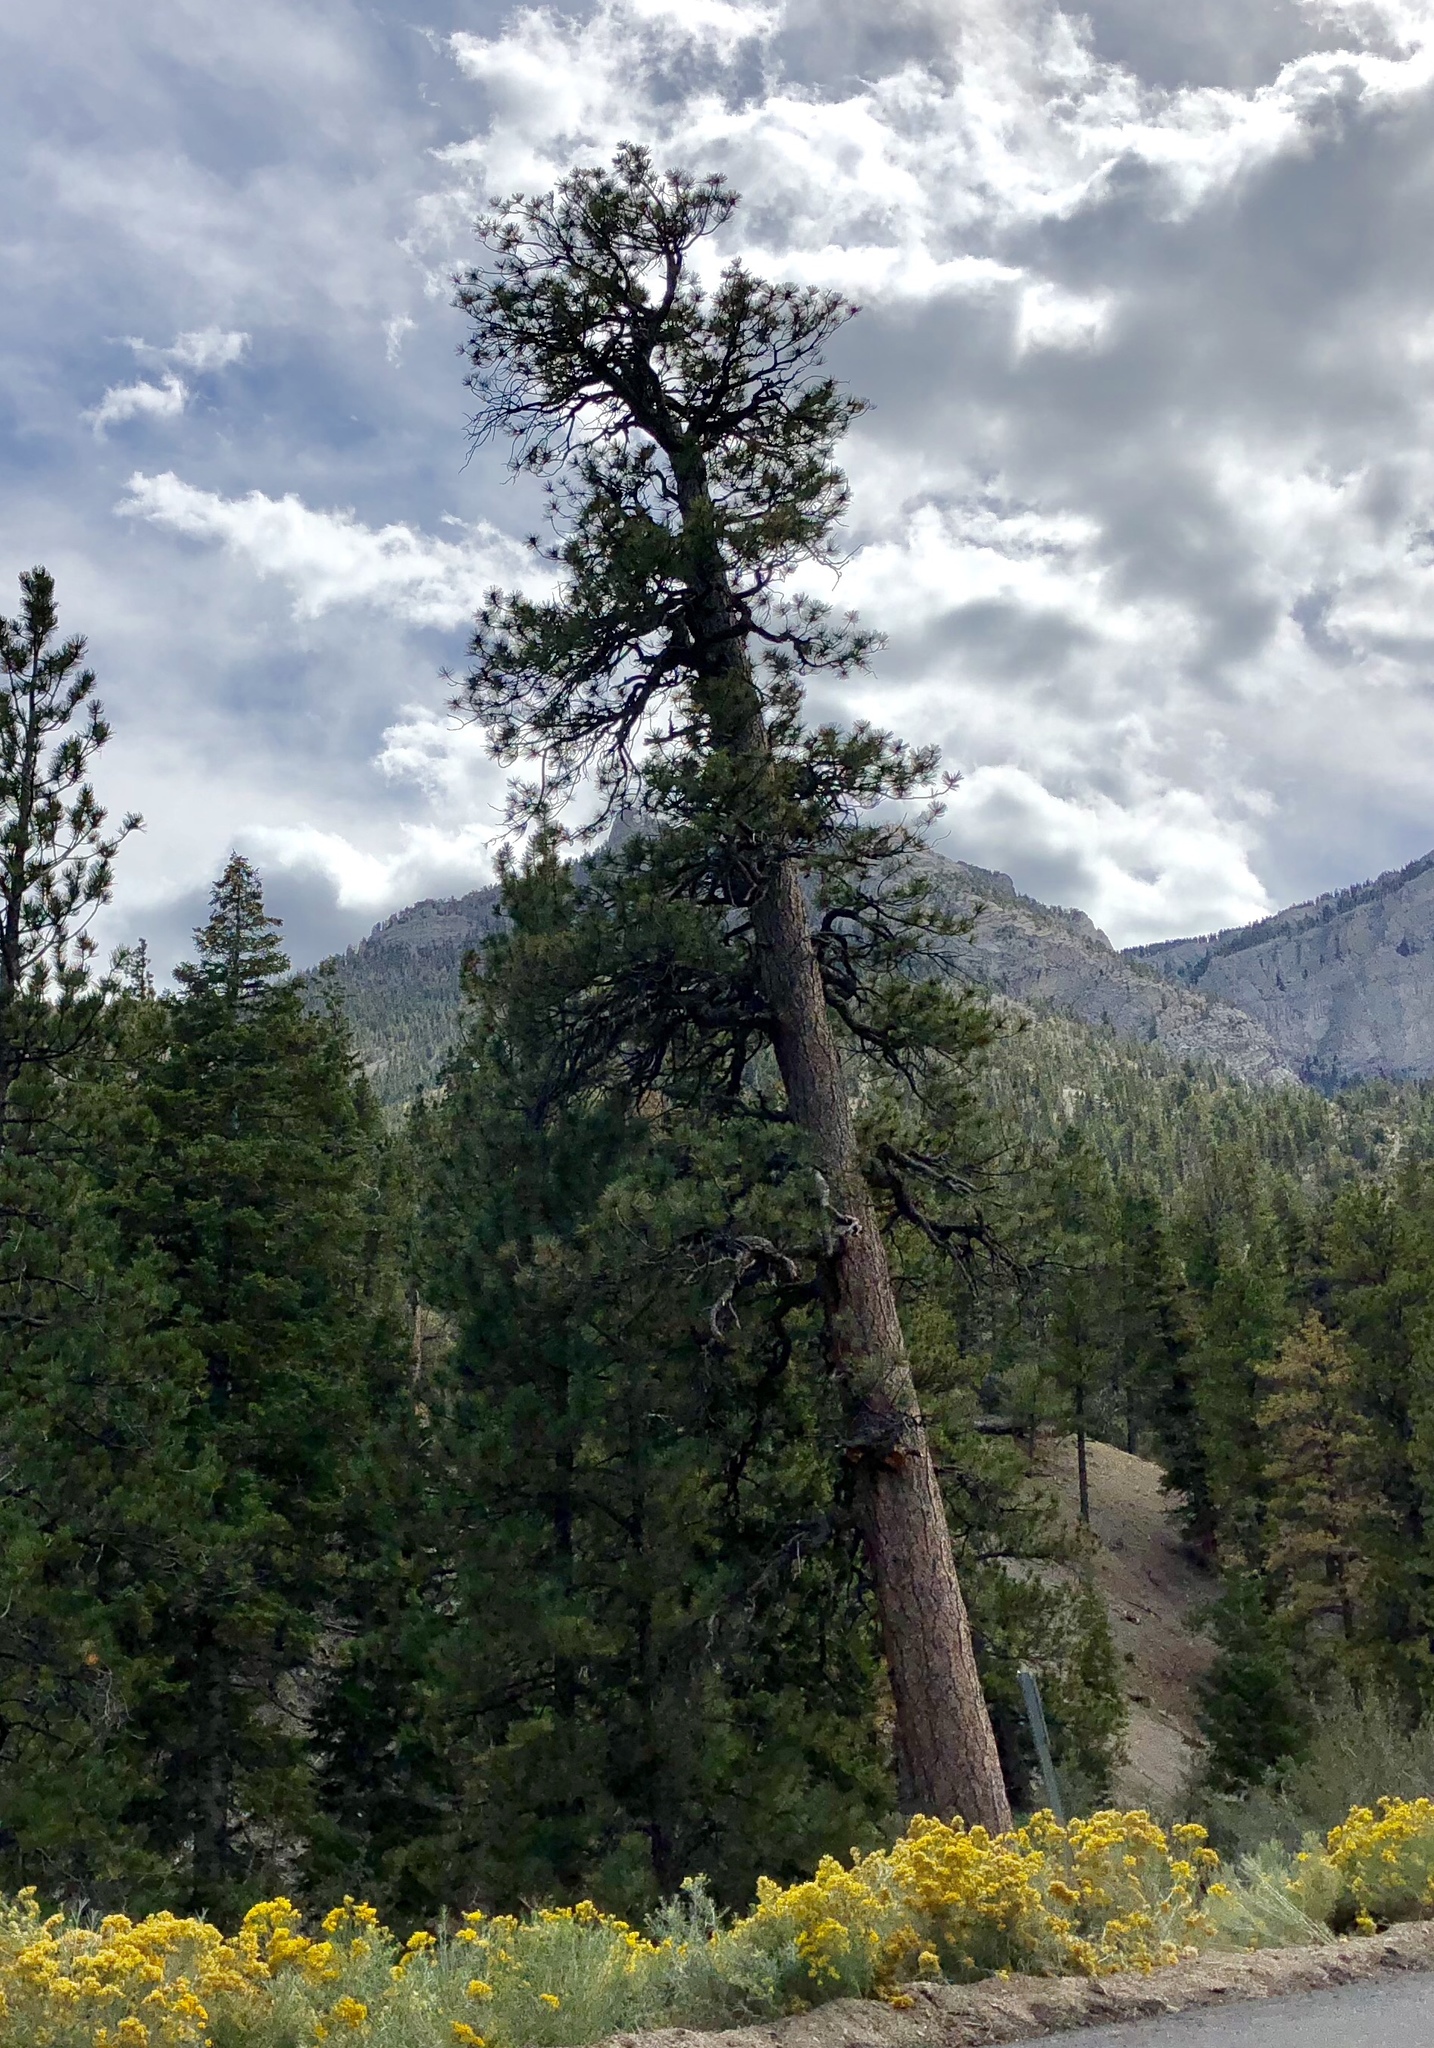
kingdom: Plantae
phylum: Tracheophyta
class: Pinopsida
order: Pinales
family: Pinaceae
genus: Pinus
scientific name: Pinus ponderosa
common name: Western yellow-pine
